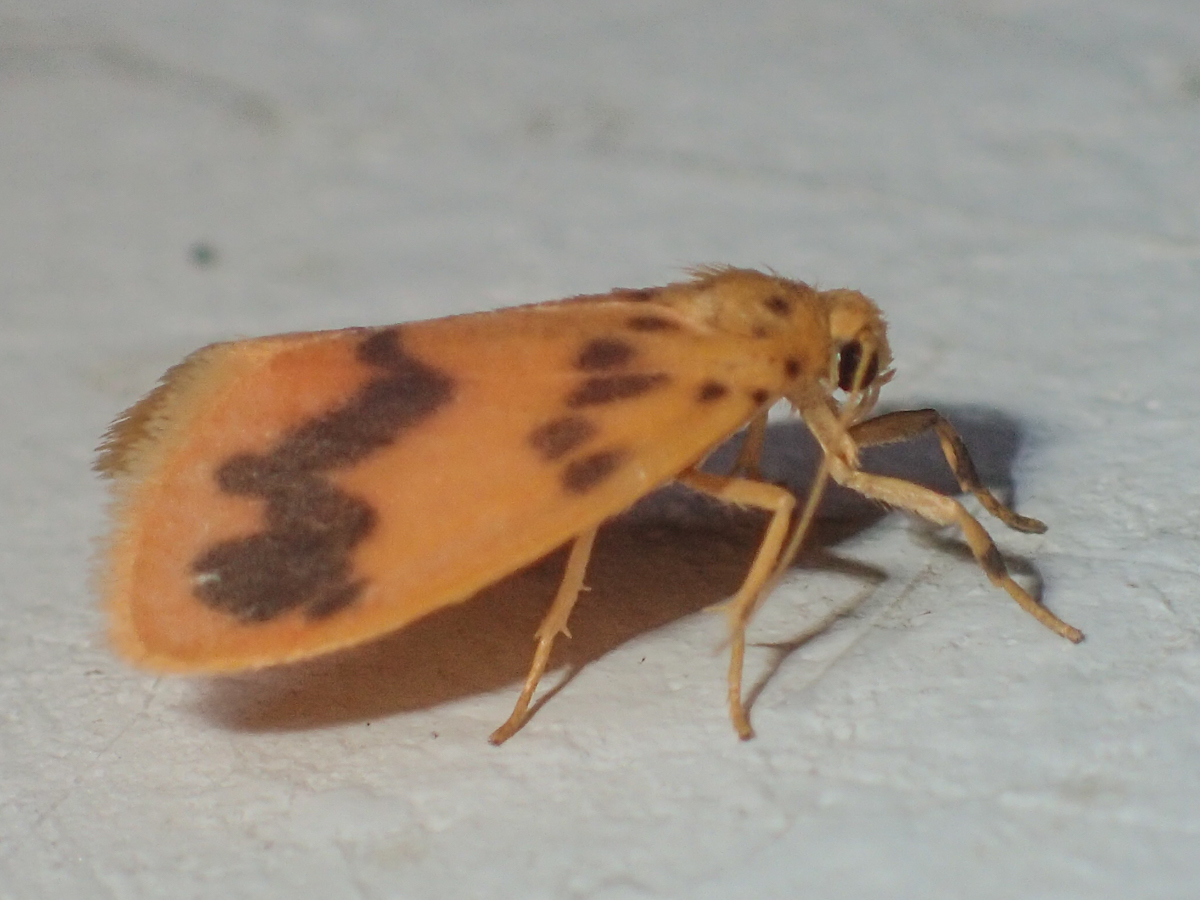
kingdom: Animalia
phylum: Arthropoda
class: Insecta
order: Lepidoptera
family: Erebidae
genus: Miltochrista
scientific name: Miltochrista
